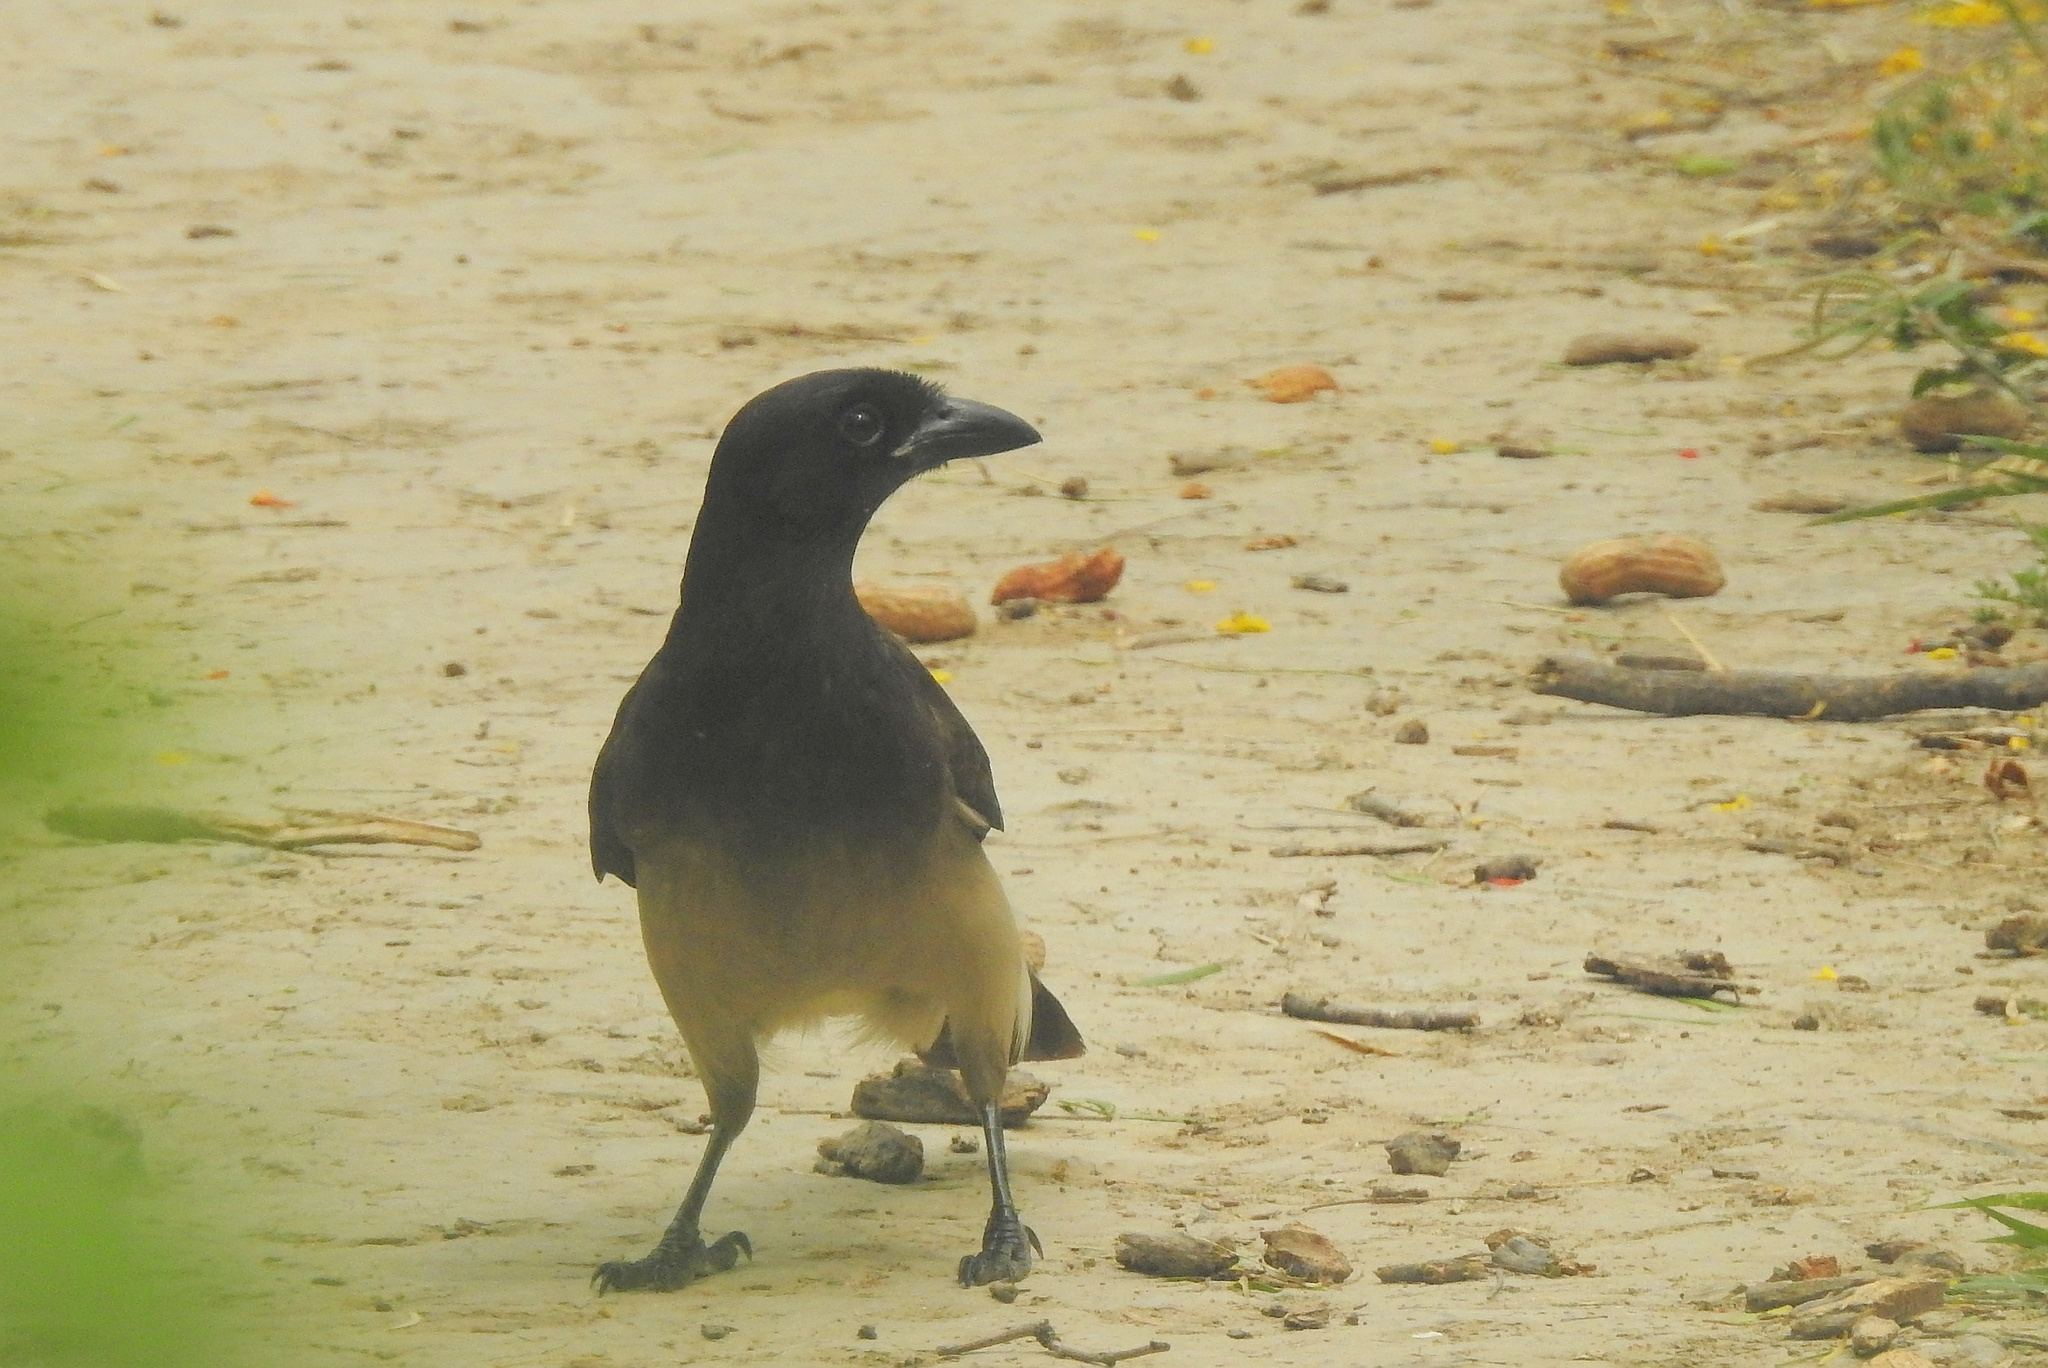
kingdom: Animalia
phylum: Chordata
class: Aves
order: Passeriformes
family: Corvidae
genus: Psilorhinus
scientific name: Psilorhinus morio
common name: Brown jay
